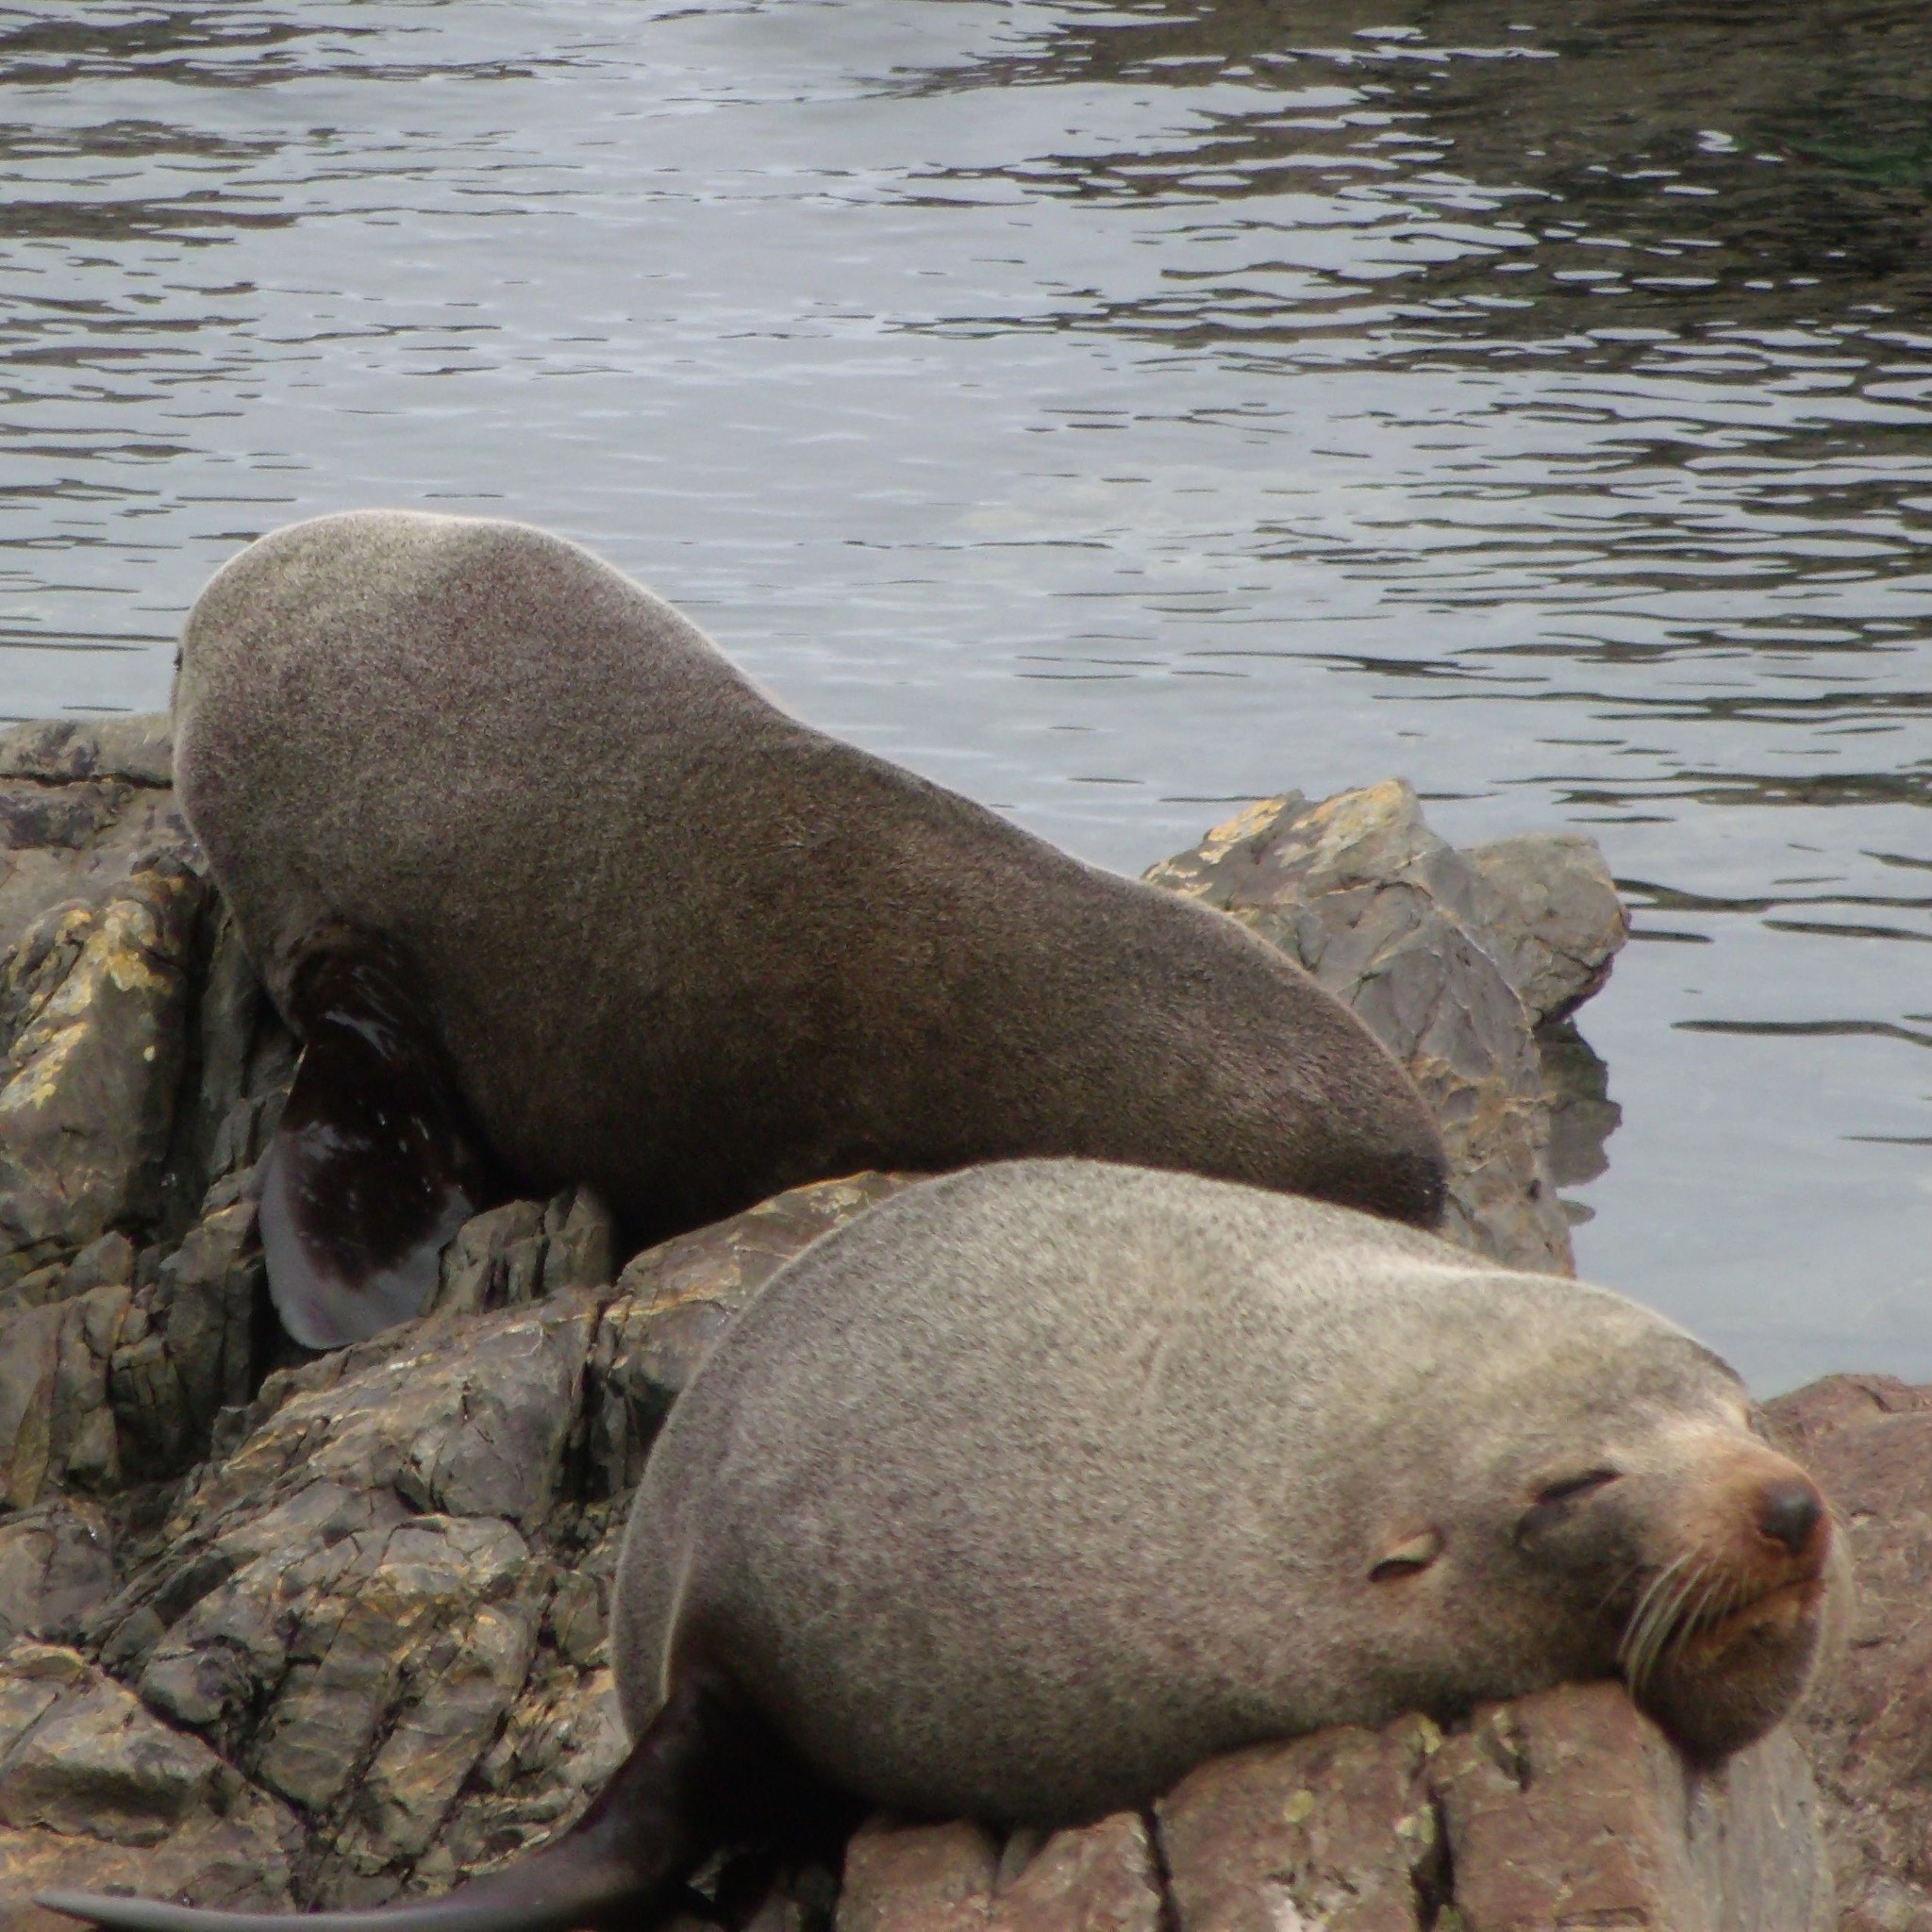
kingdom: Animalia
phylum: Chordata
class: Mammalia
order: Carnivora
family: Otariidae
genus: Arctocephalus
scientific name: Arctocephalus forsteri
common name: New zealand fur seal
